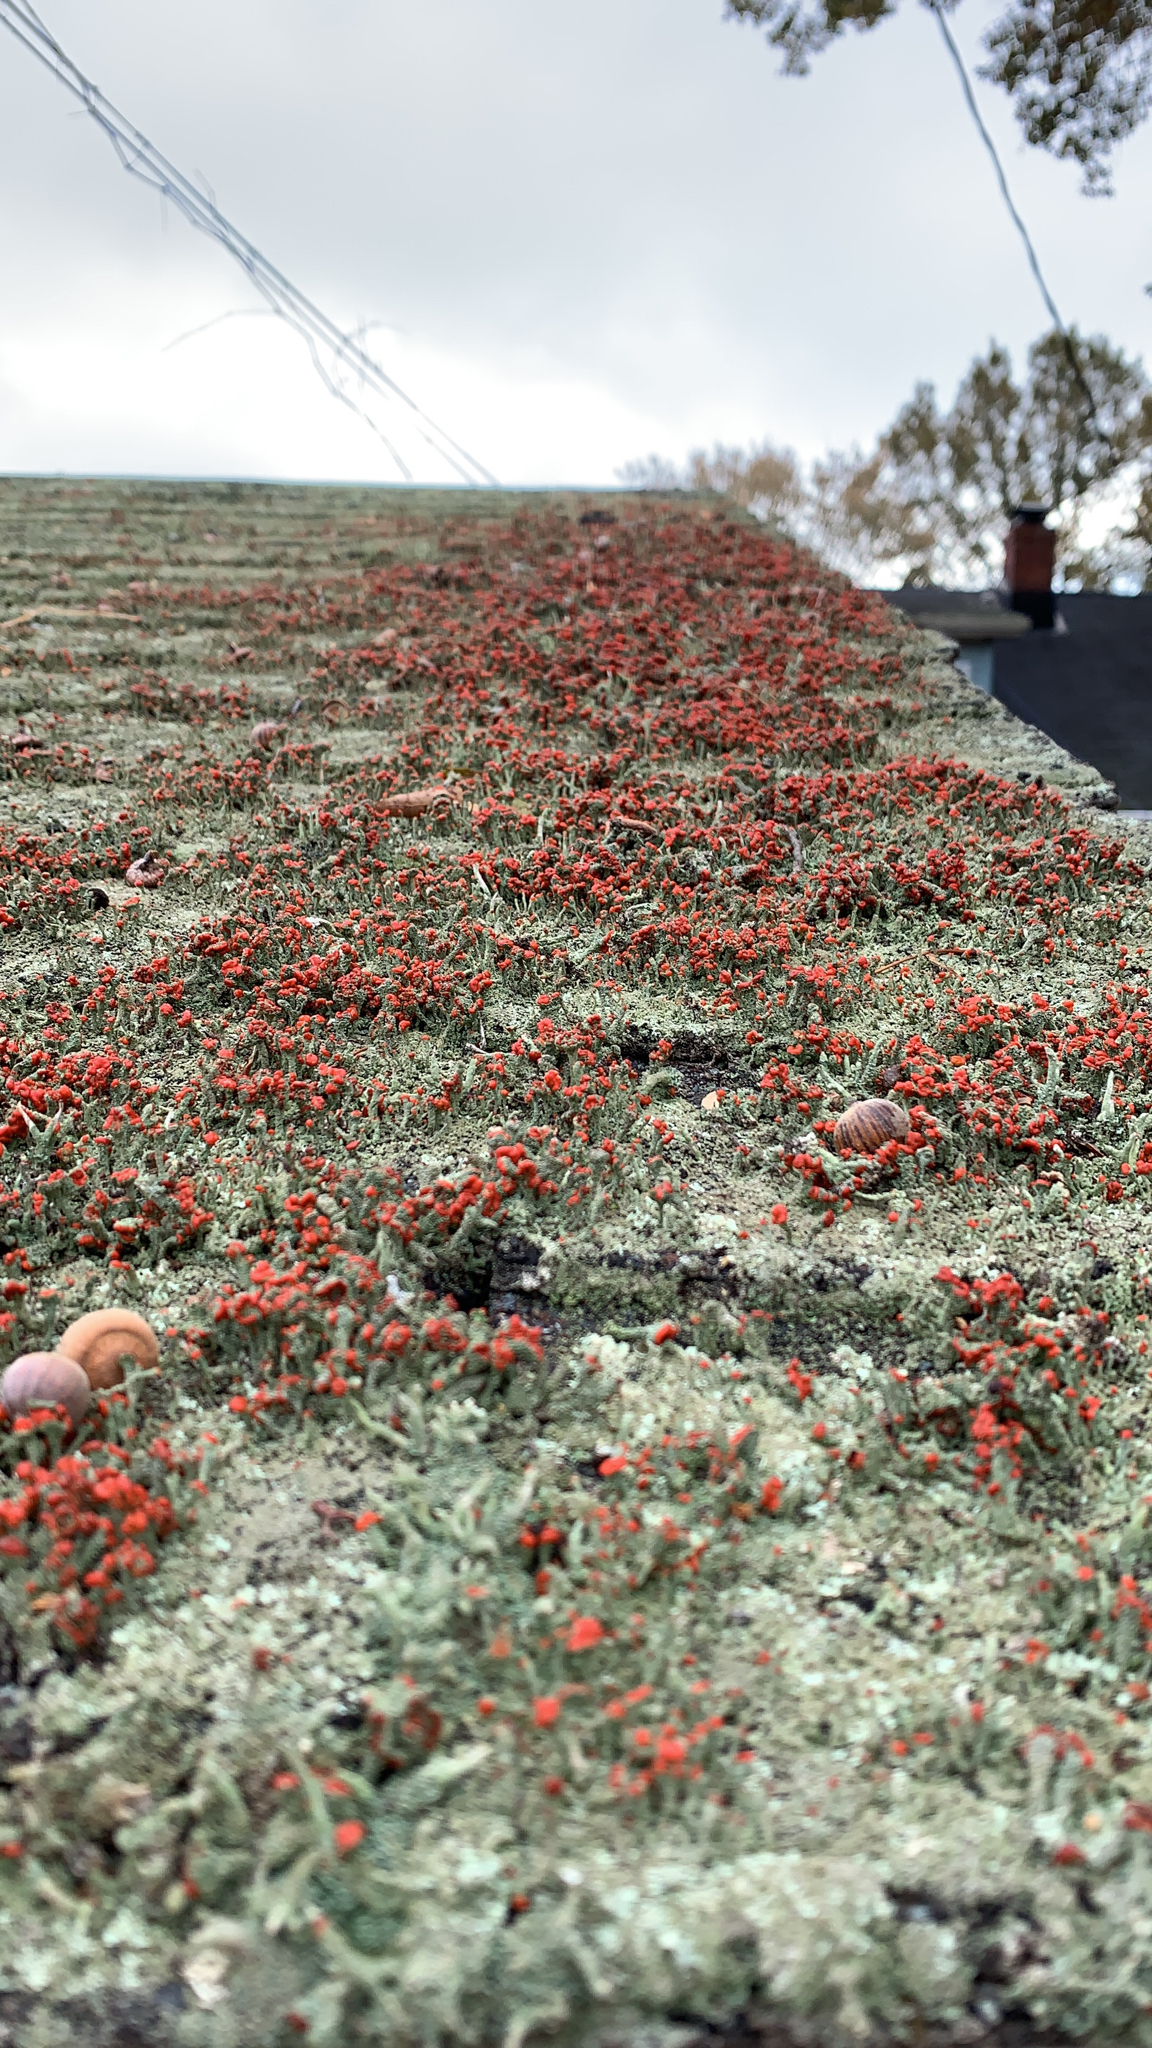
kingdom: Fungi
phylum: Ascomycota
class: Lecanoromycetes
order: Lecanorales
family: Cladoniaceae
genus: Cladonia
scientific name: Cladonia cristatella
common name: British soldier lichen
